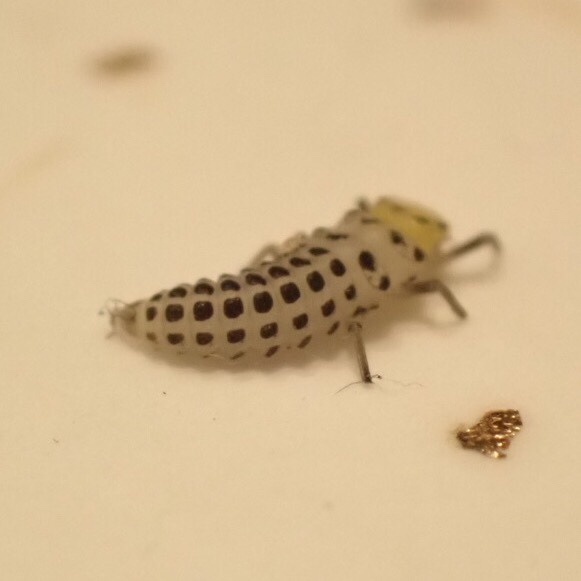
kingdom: Animalia
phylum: Arthropoda
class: Insecta
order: Coleoptera
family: Coccinellidae
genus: Illeis
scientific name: Illeis galbula
